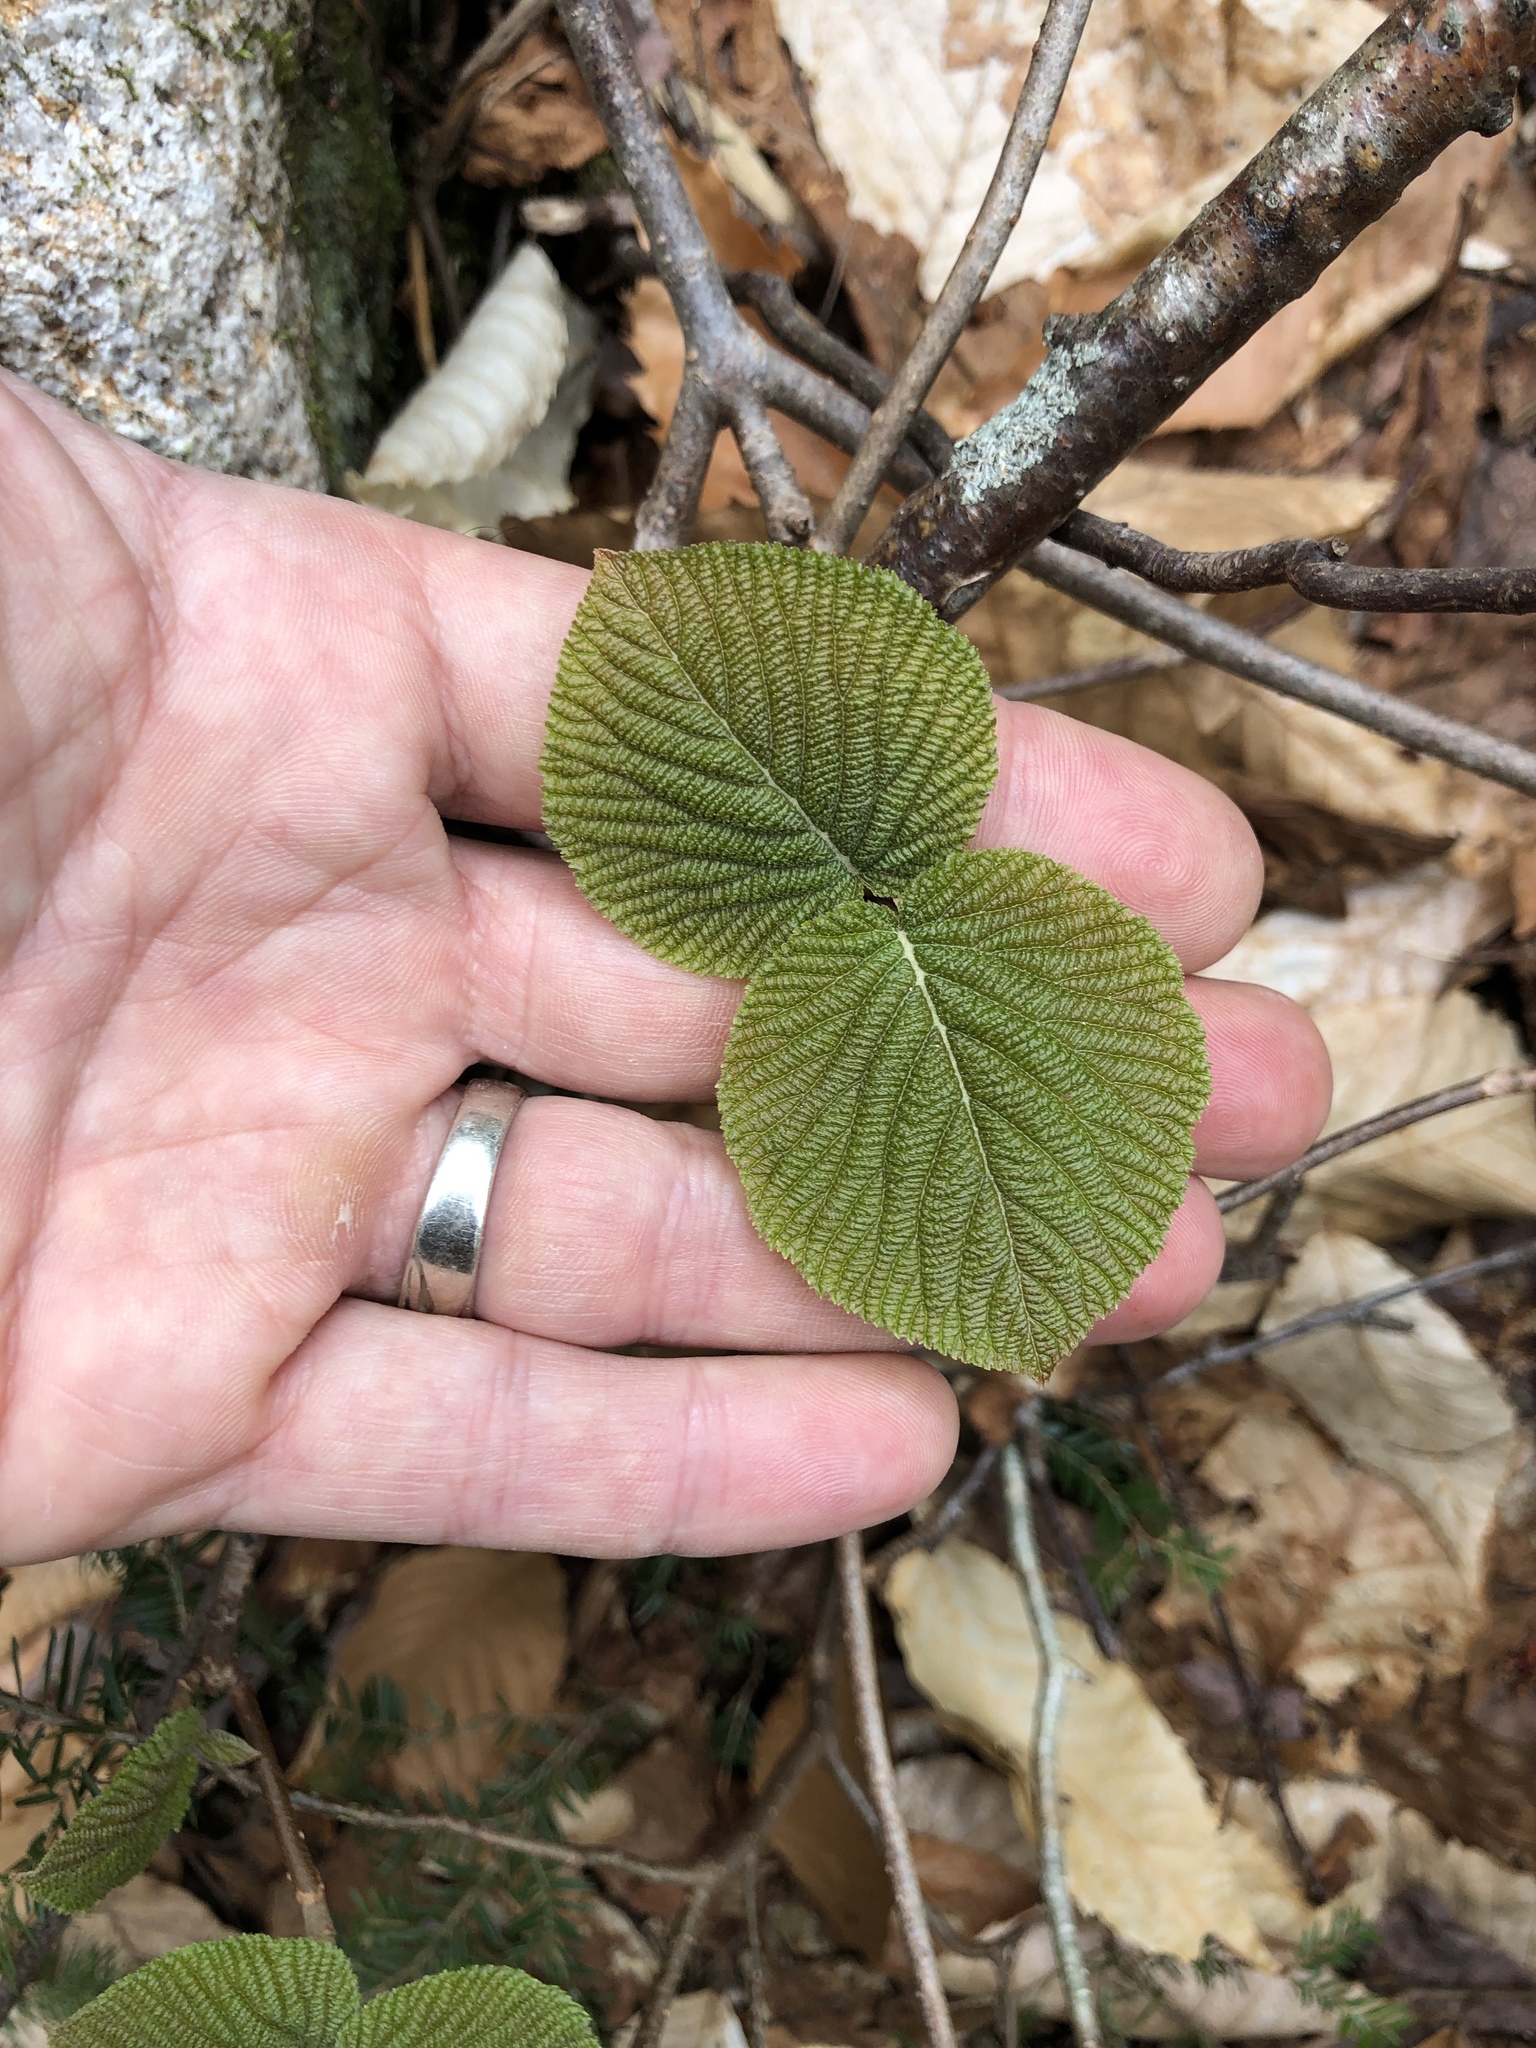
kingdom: Plantae
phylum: Tracheophyta
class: Magnoliopsida
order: Dipsacales
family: Viburnaceae
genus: Viburnum
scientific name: Viburnum lantanoides
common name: Hobblebush
